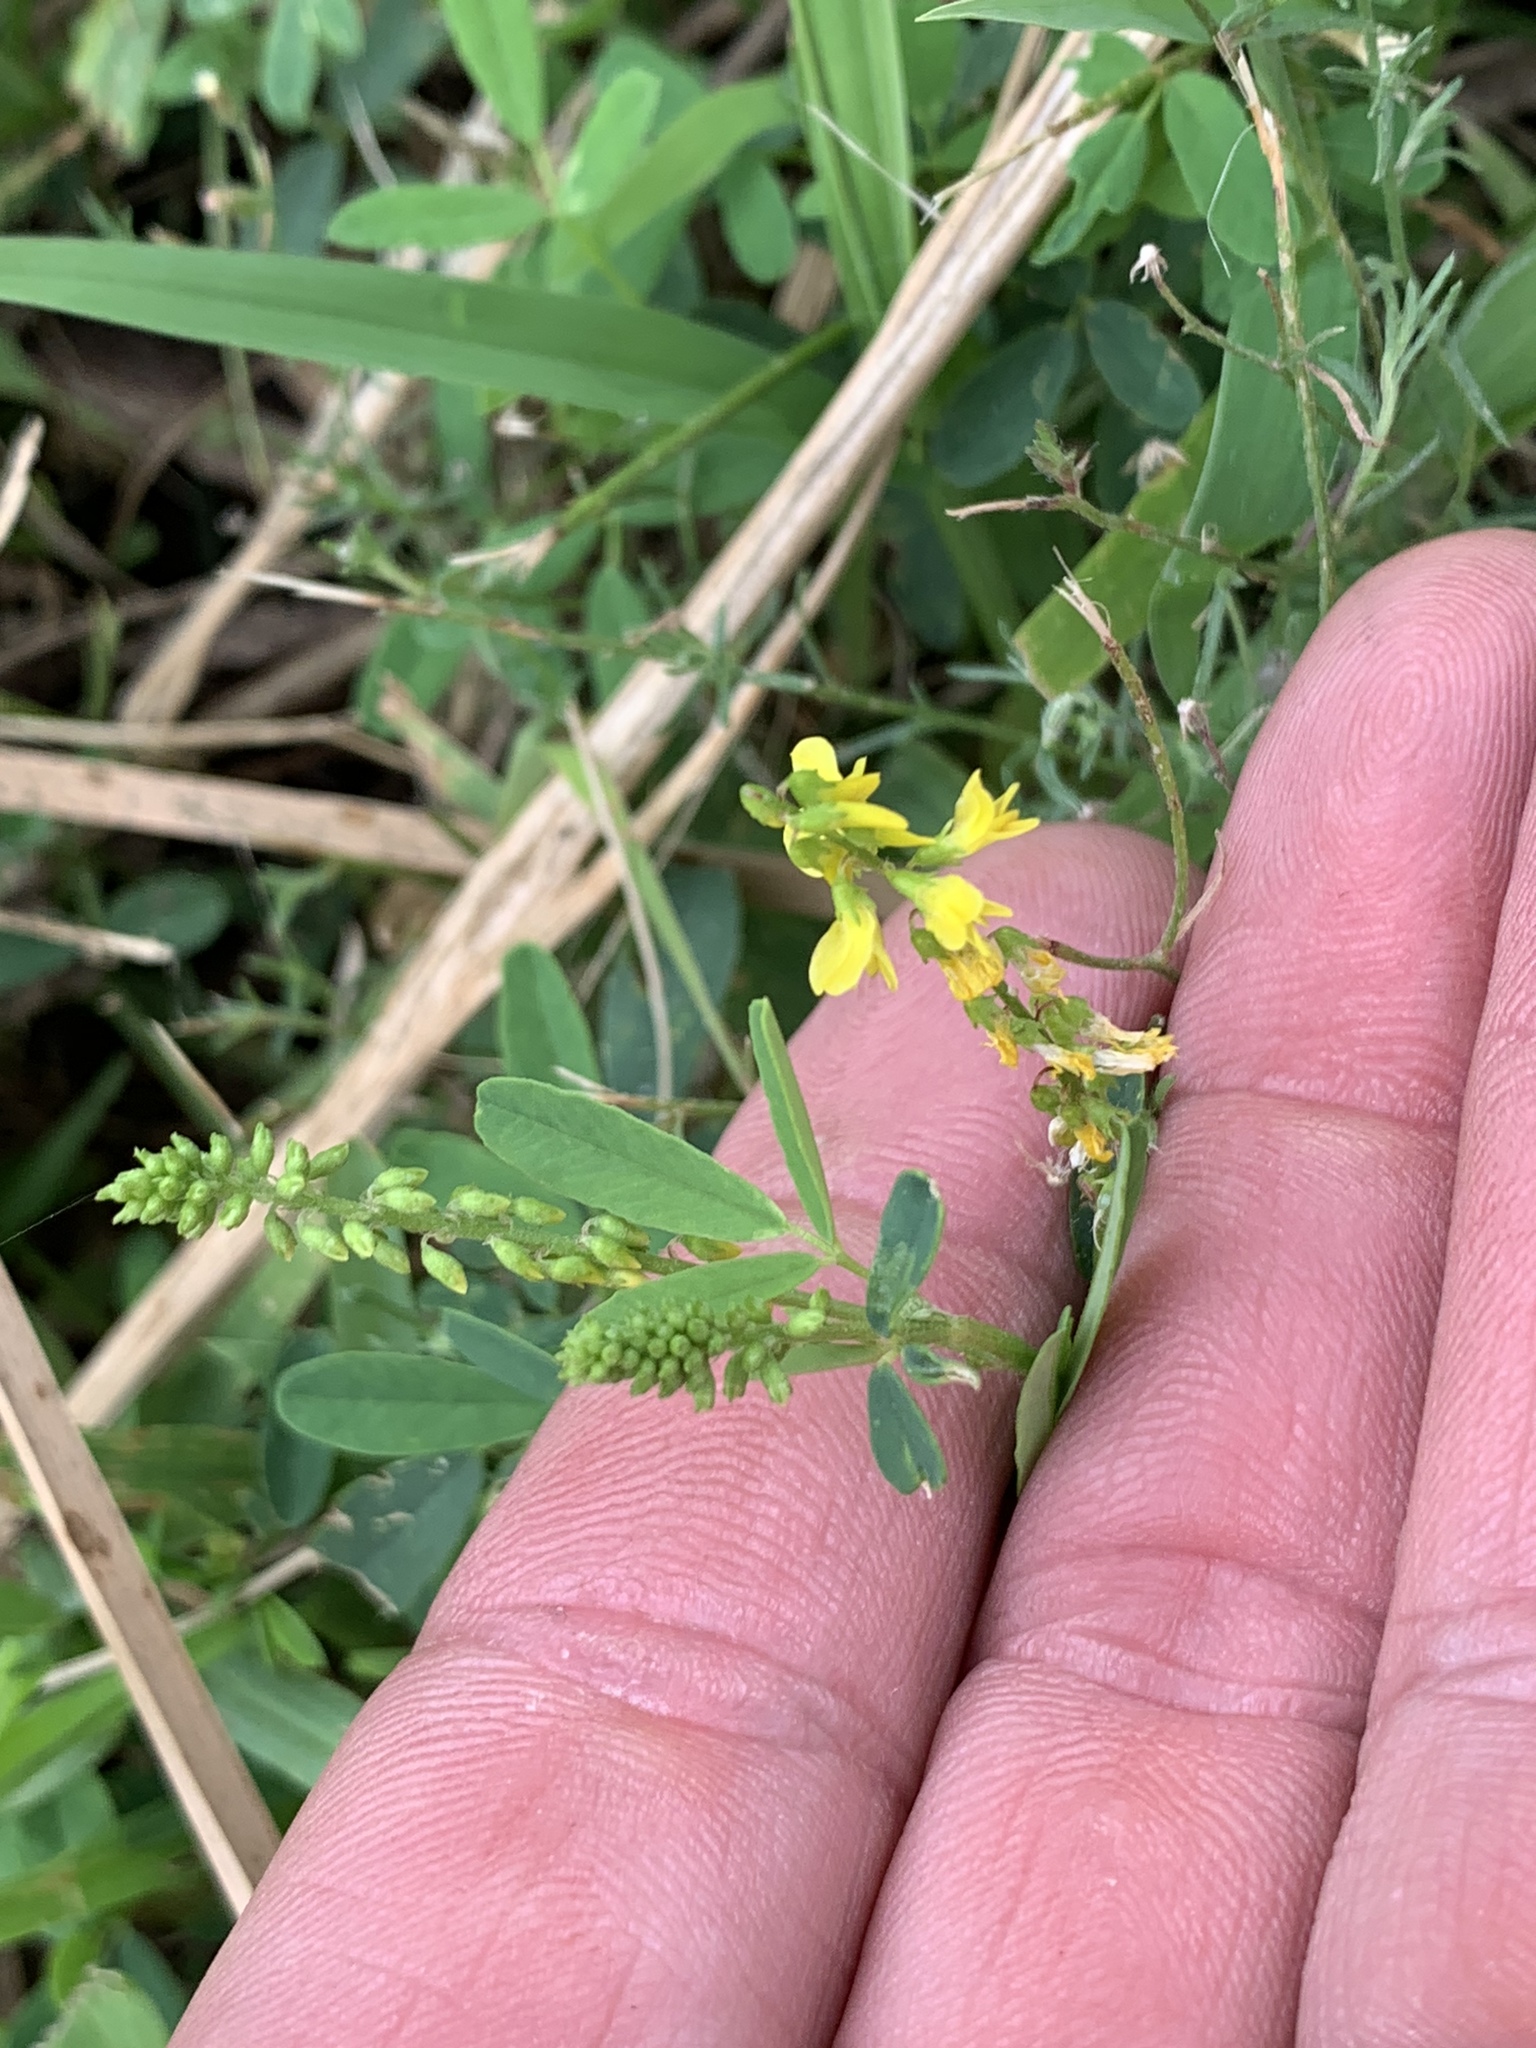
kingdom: Plantae
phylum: Tracheophyta
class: Magnoliopsida
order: Fabales
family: Fabaceae
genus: Melilotus
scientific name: Melilotus officinalis
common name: Sweetclover
